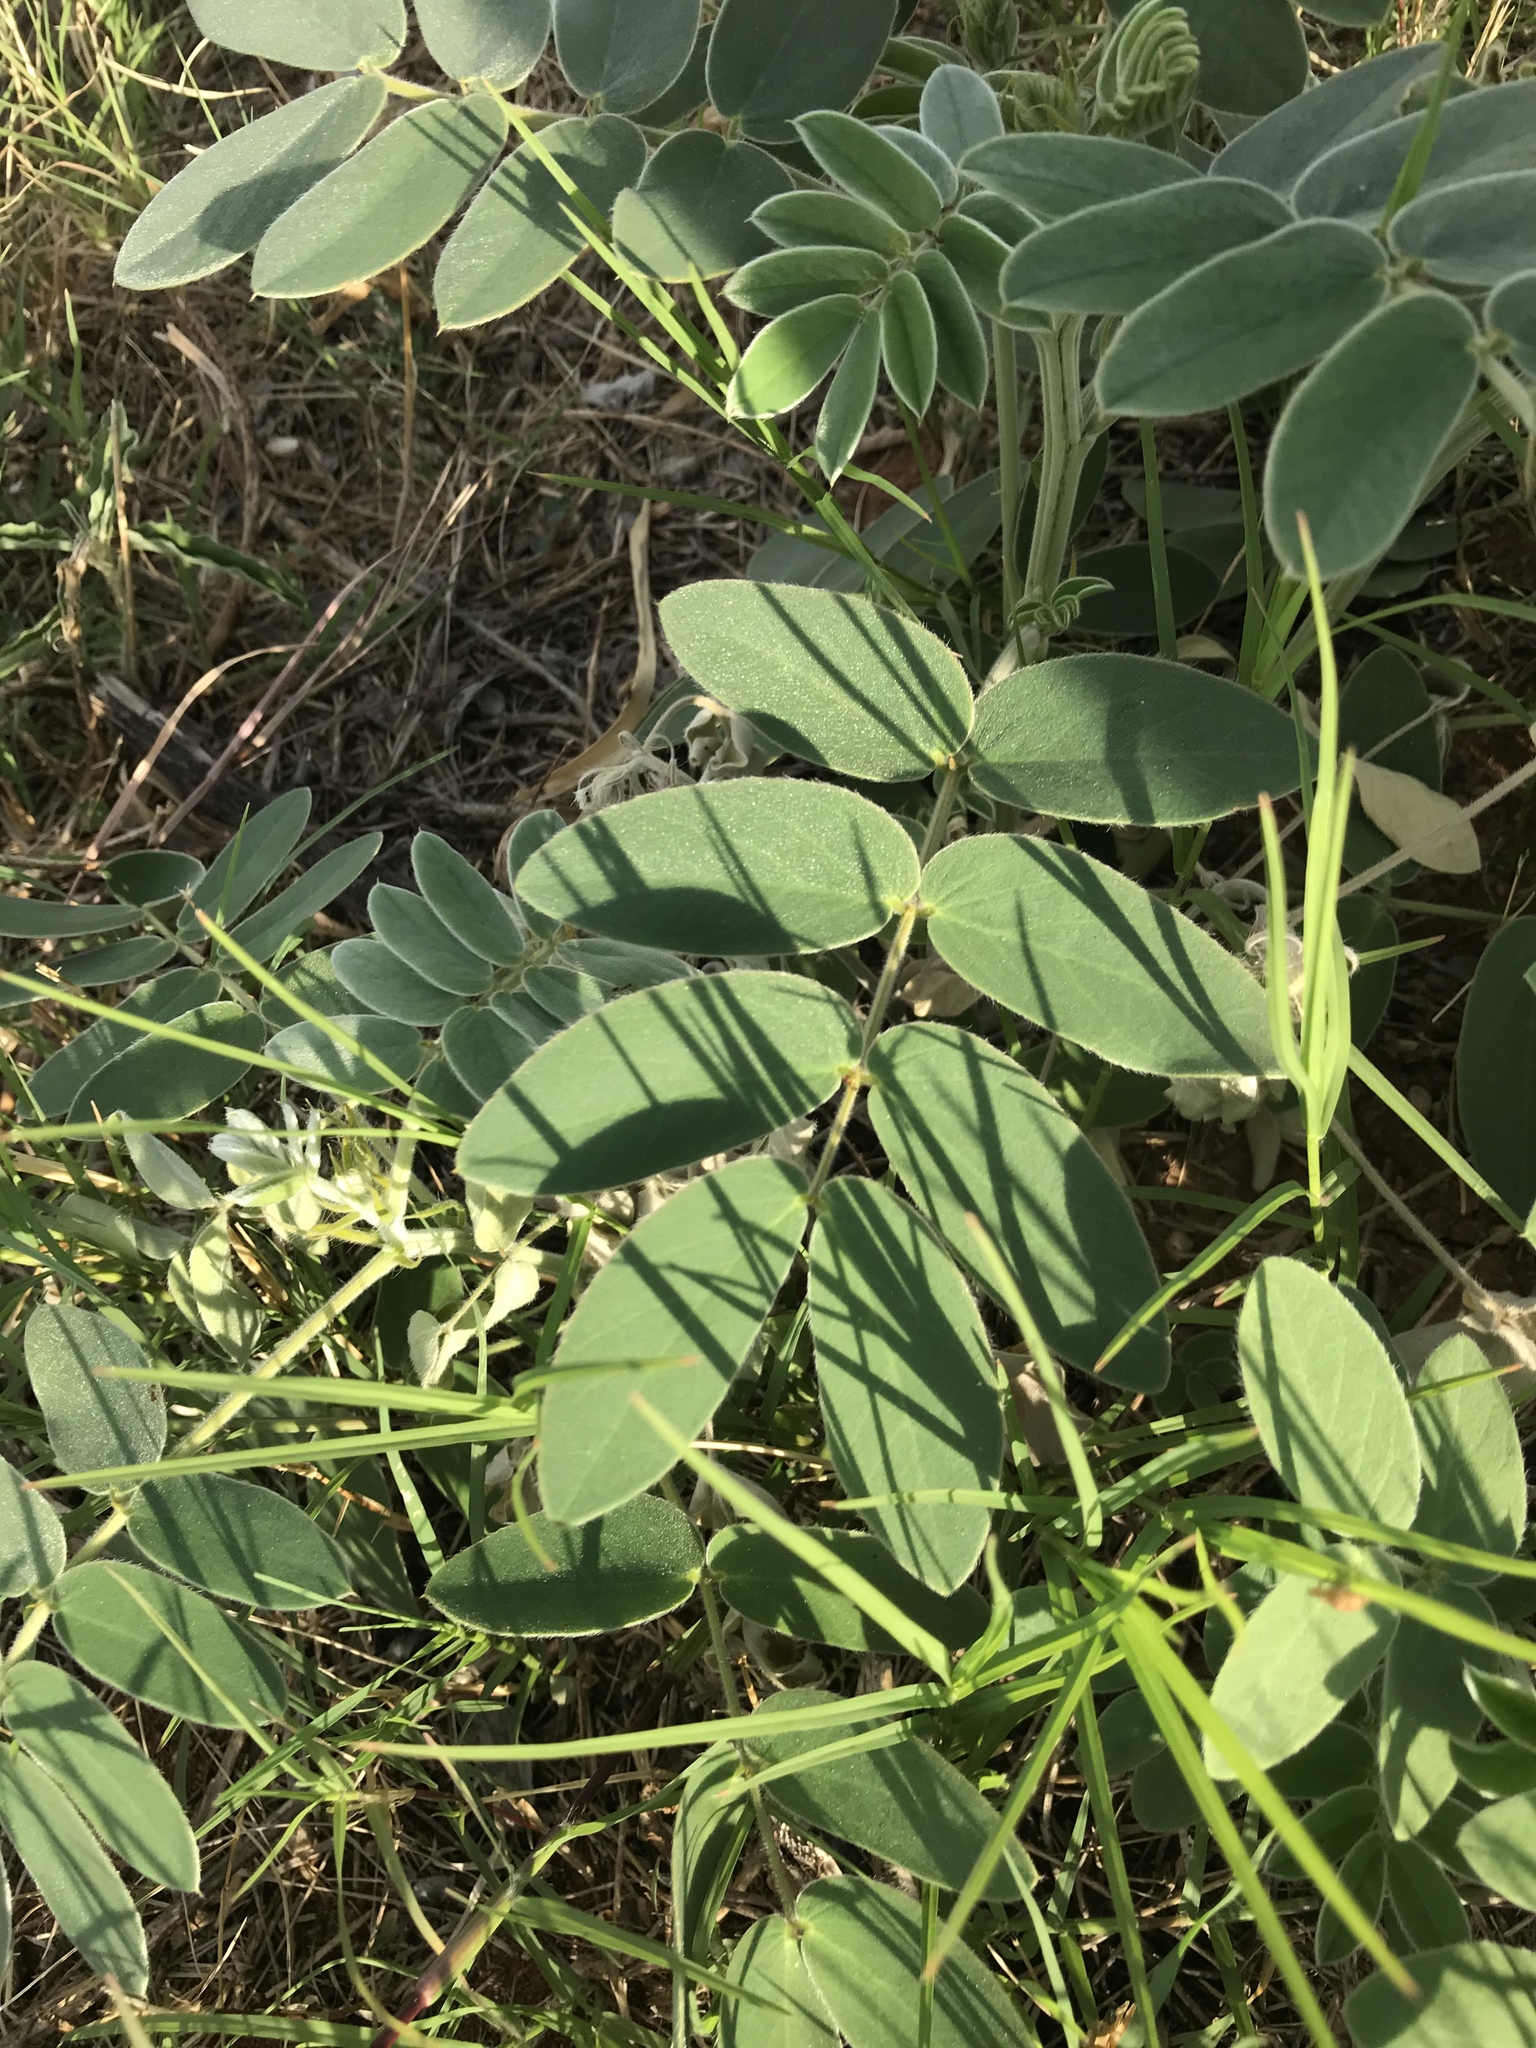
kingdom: Plantae
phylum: Tracheophyta
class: Magnoliopsida
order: Fabales
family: Fabaceae
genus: Senna
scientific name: Senna lindheimeriana
